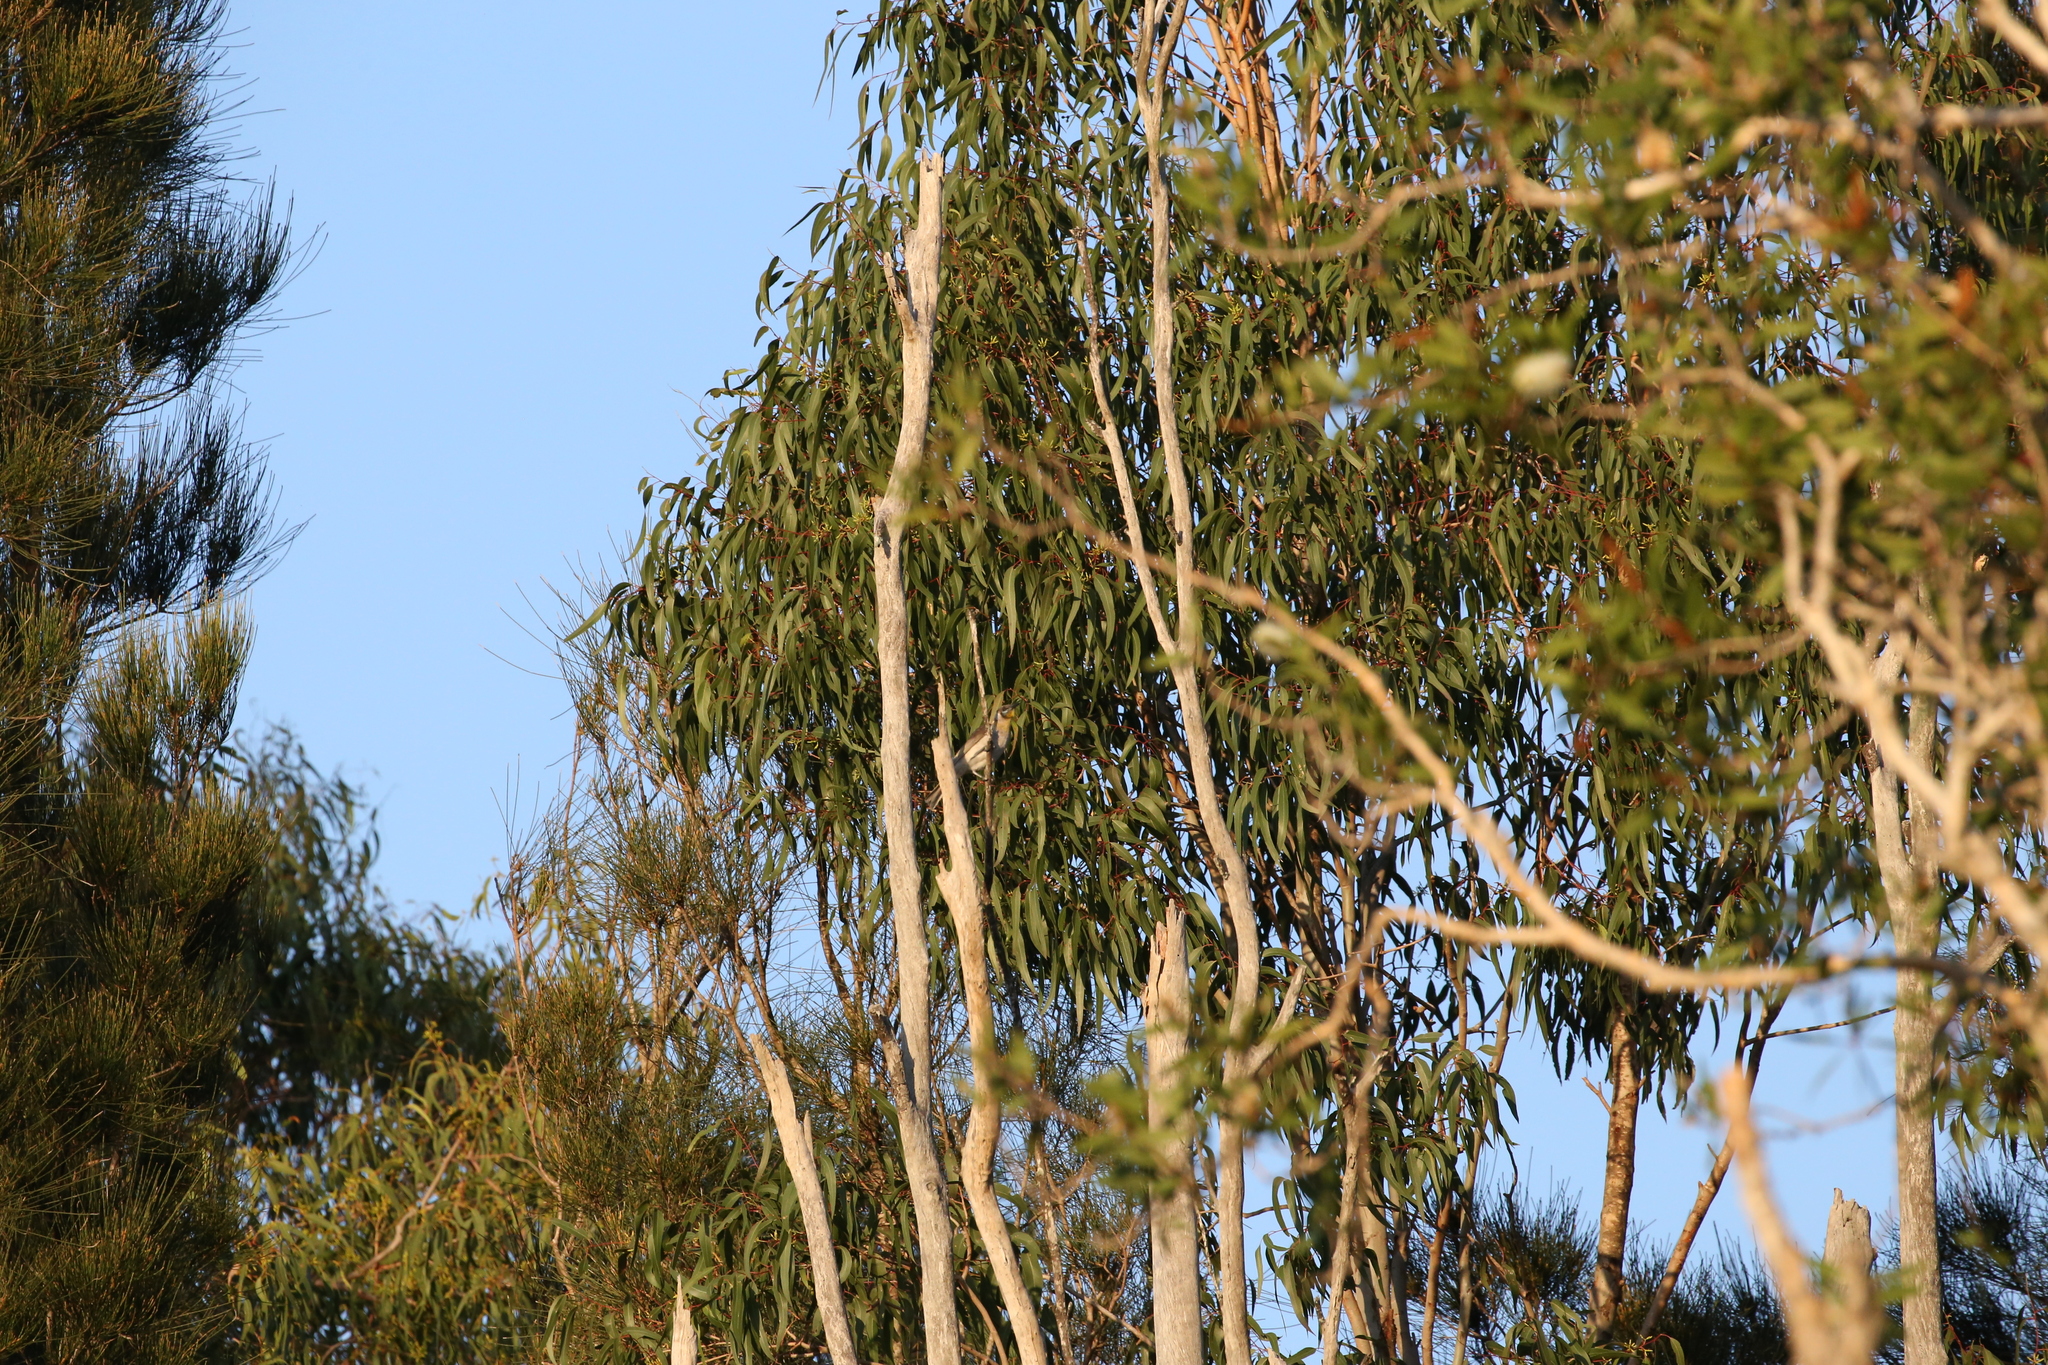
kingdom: Animalia
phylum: Chordata
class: Aves
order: Passeriformes
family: Meliphagidae
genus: Philemon
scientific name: Philemon citreogularis
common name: Little friarbird
